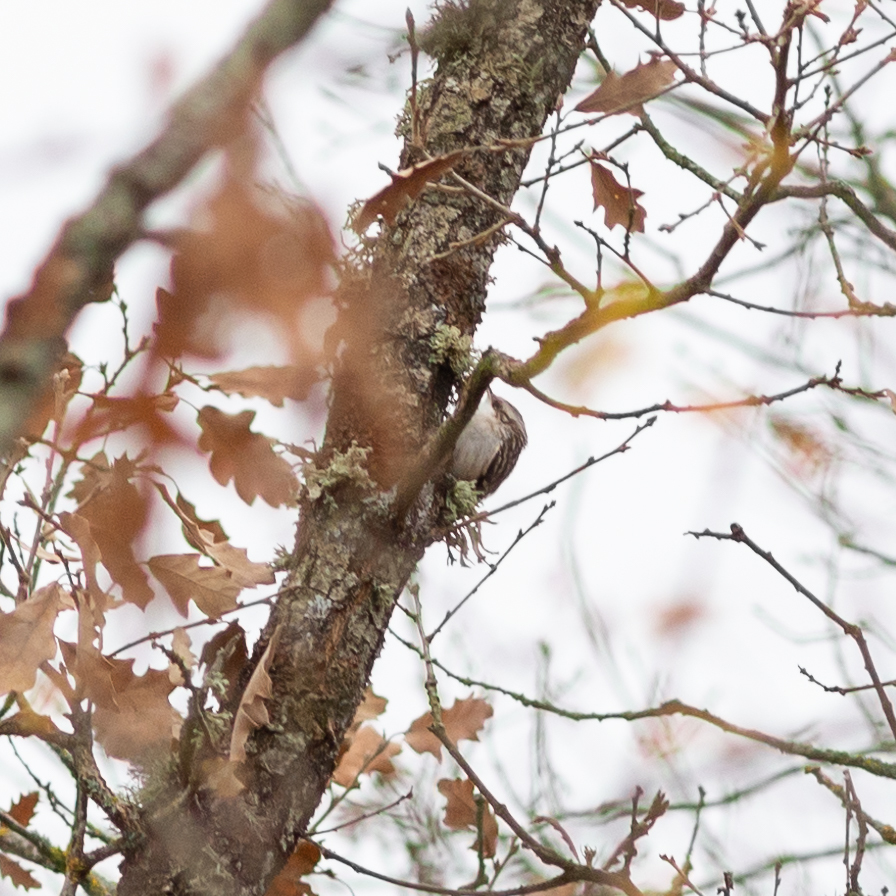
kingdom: Animalia
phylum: Chordata
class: Aves
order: Passeriformes
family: Certhiidae
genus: Certhia
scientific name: Certhia brachydactyla
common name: Short-toed treecreeper
